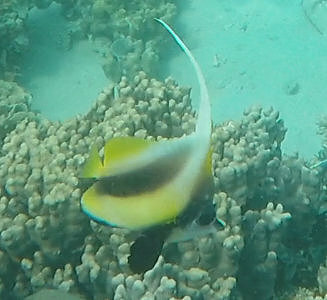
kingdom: Animalia
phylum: Chordata
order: Perciformes
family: Chaetodontidae
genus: Heniochus
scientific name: Heniochus intermedius
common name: Red sea bannerfish
